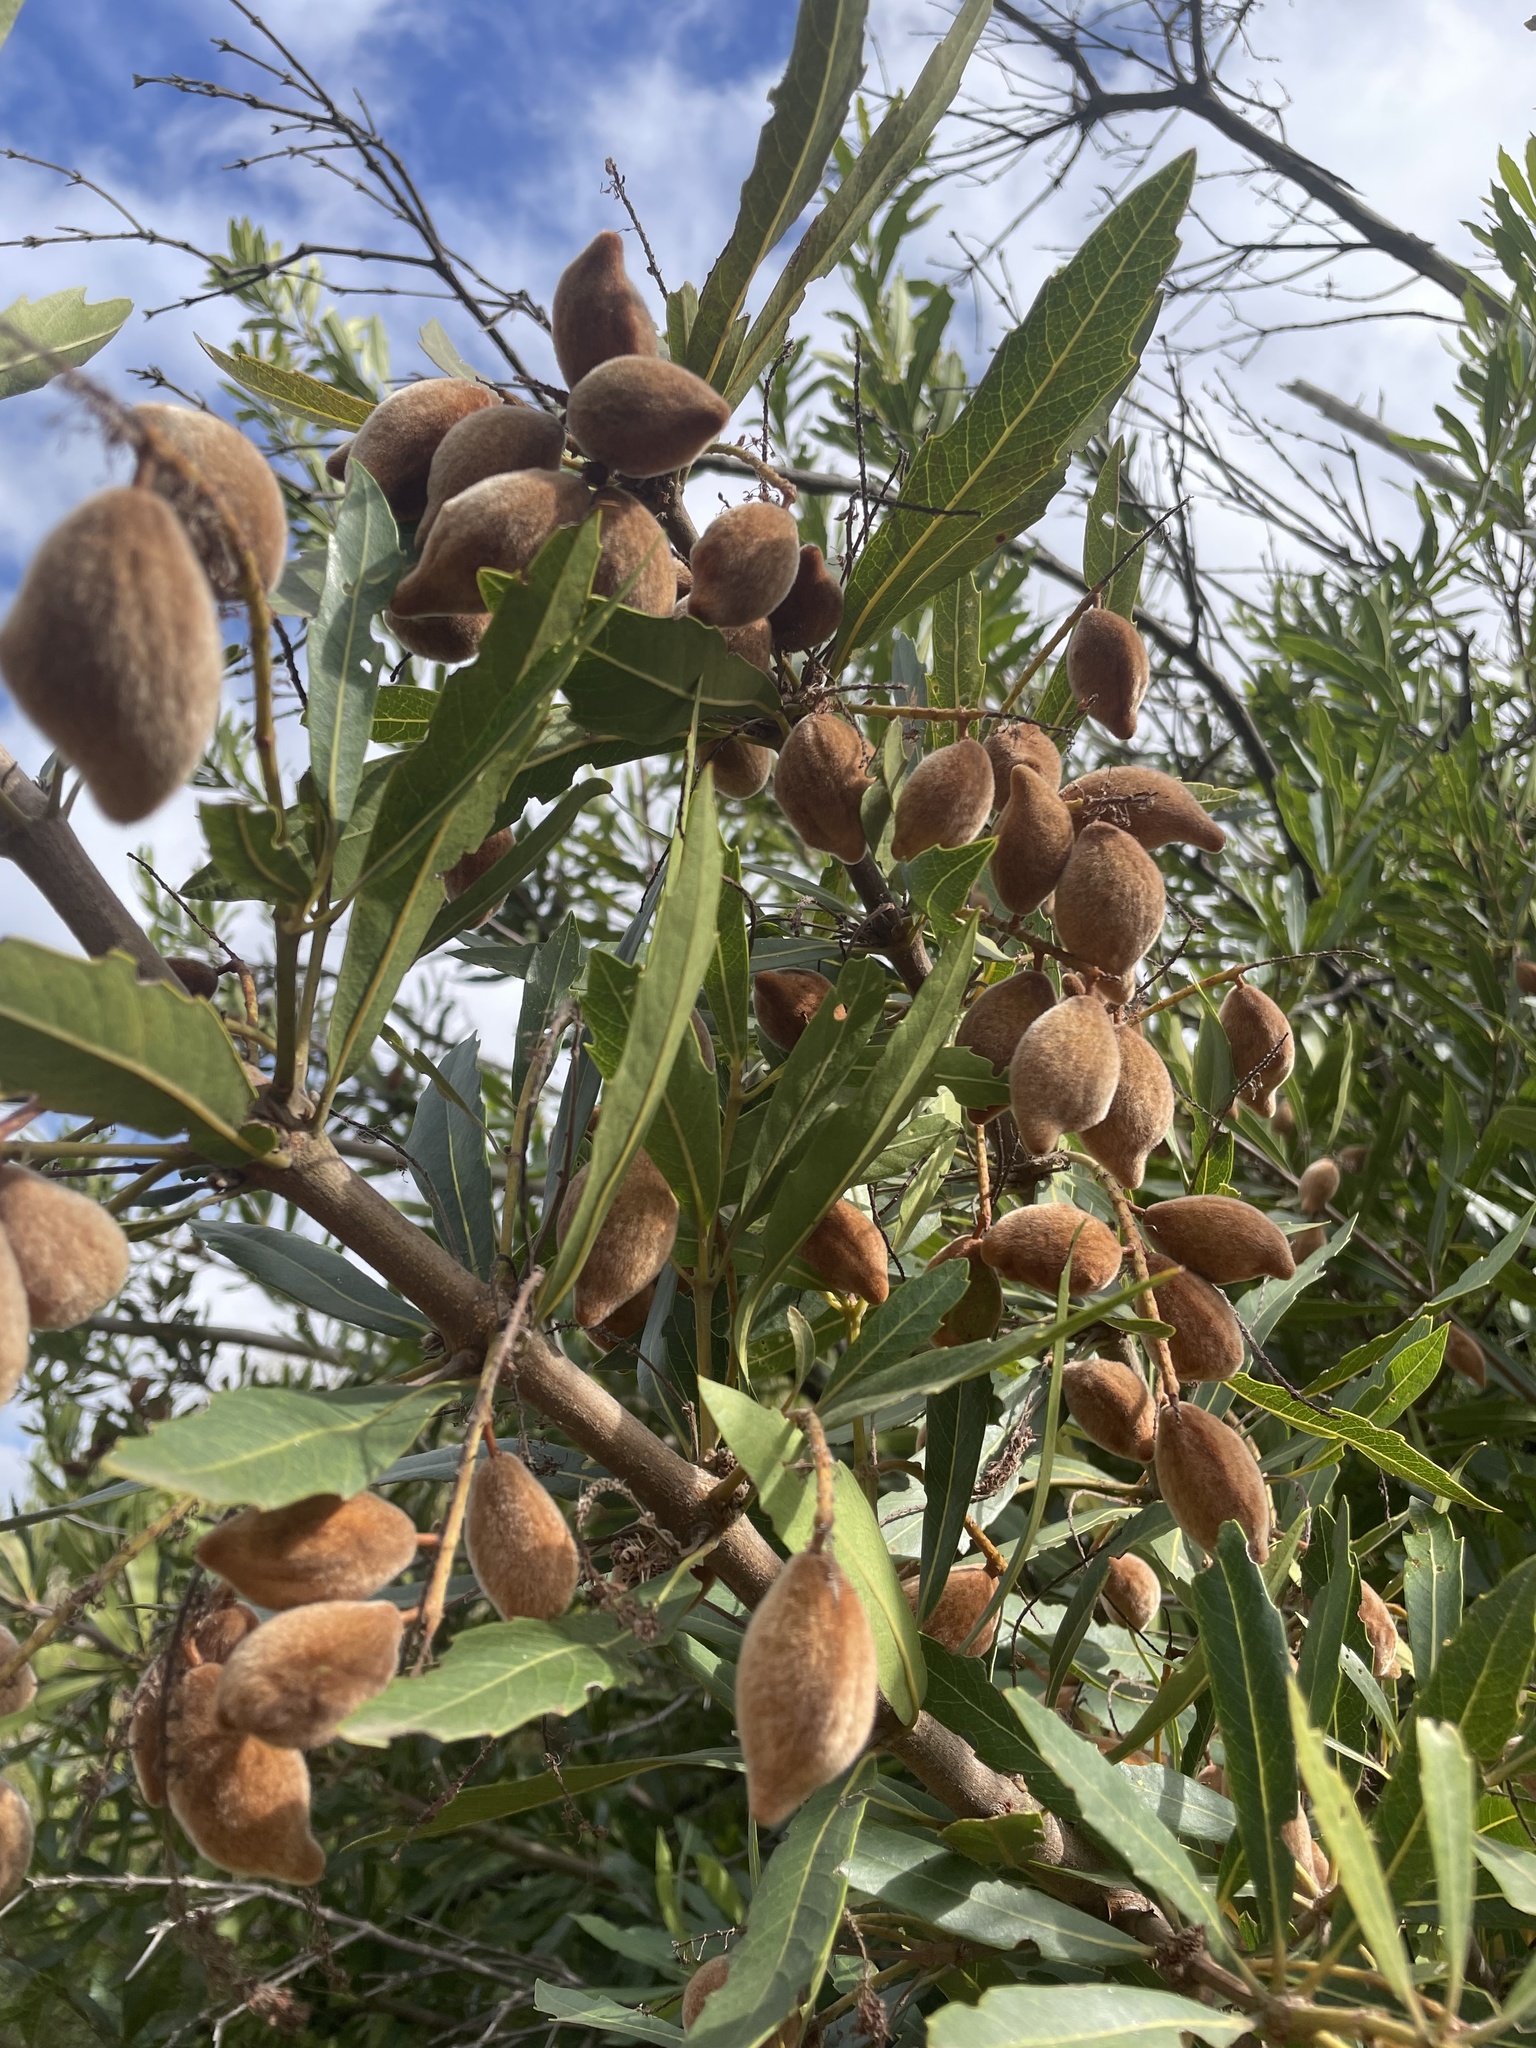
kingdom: Plantae
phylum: Tracheophyta
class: Magnoliopsida
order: Proteales
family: Proteaceae
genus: Brabejum
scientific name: Brabejum stellatifolium
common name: Wild almond
